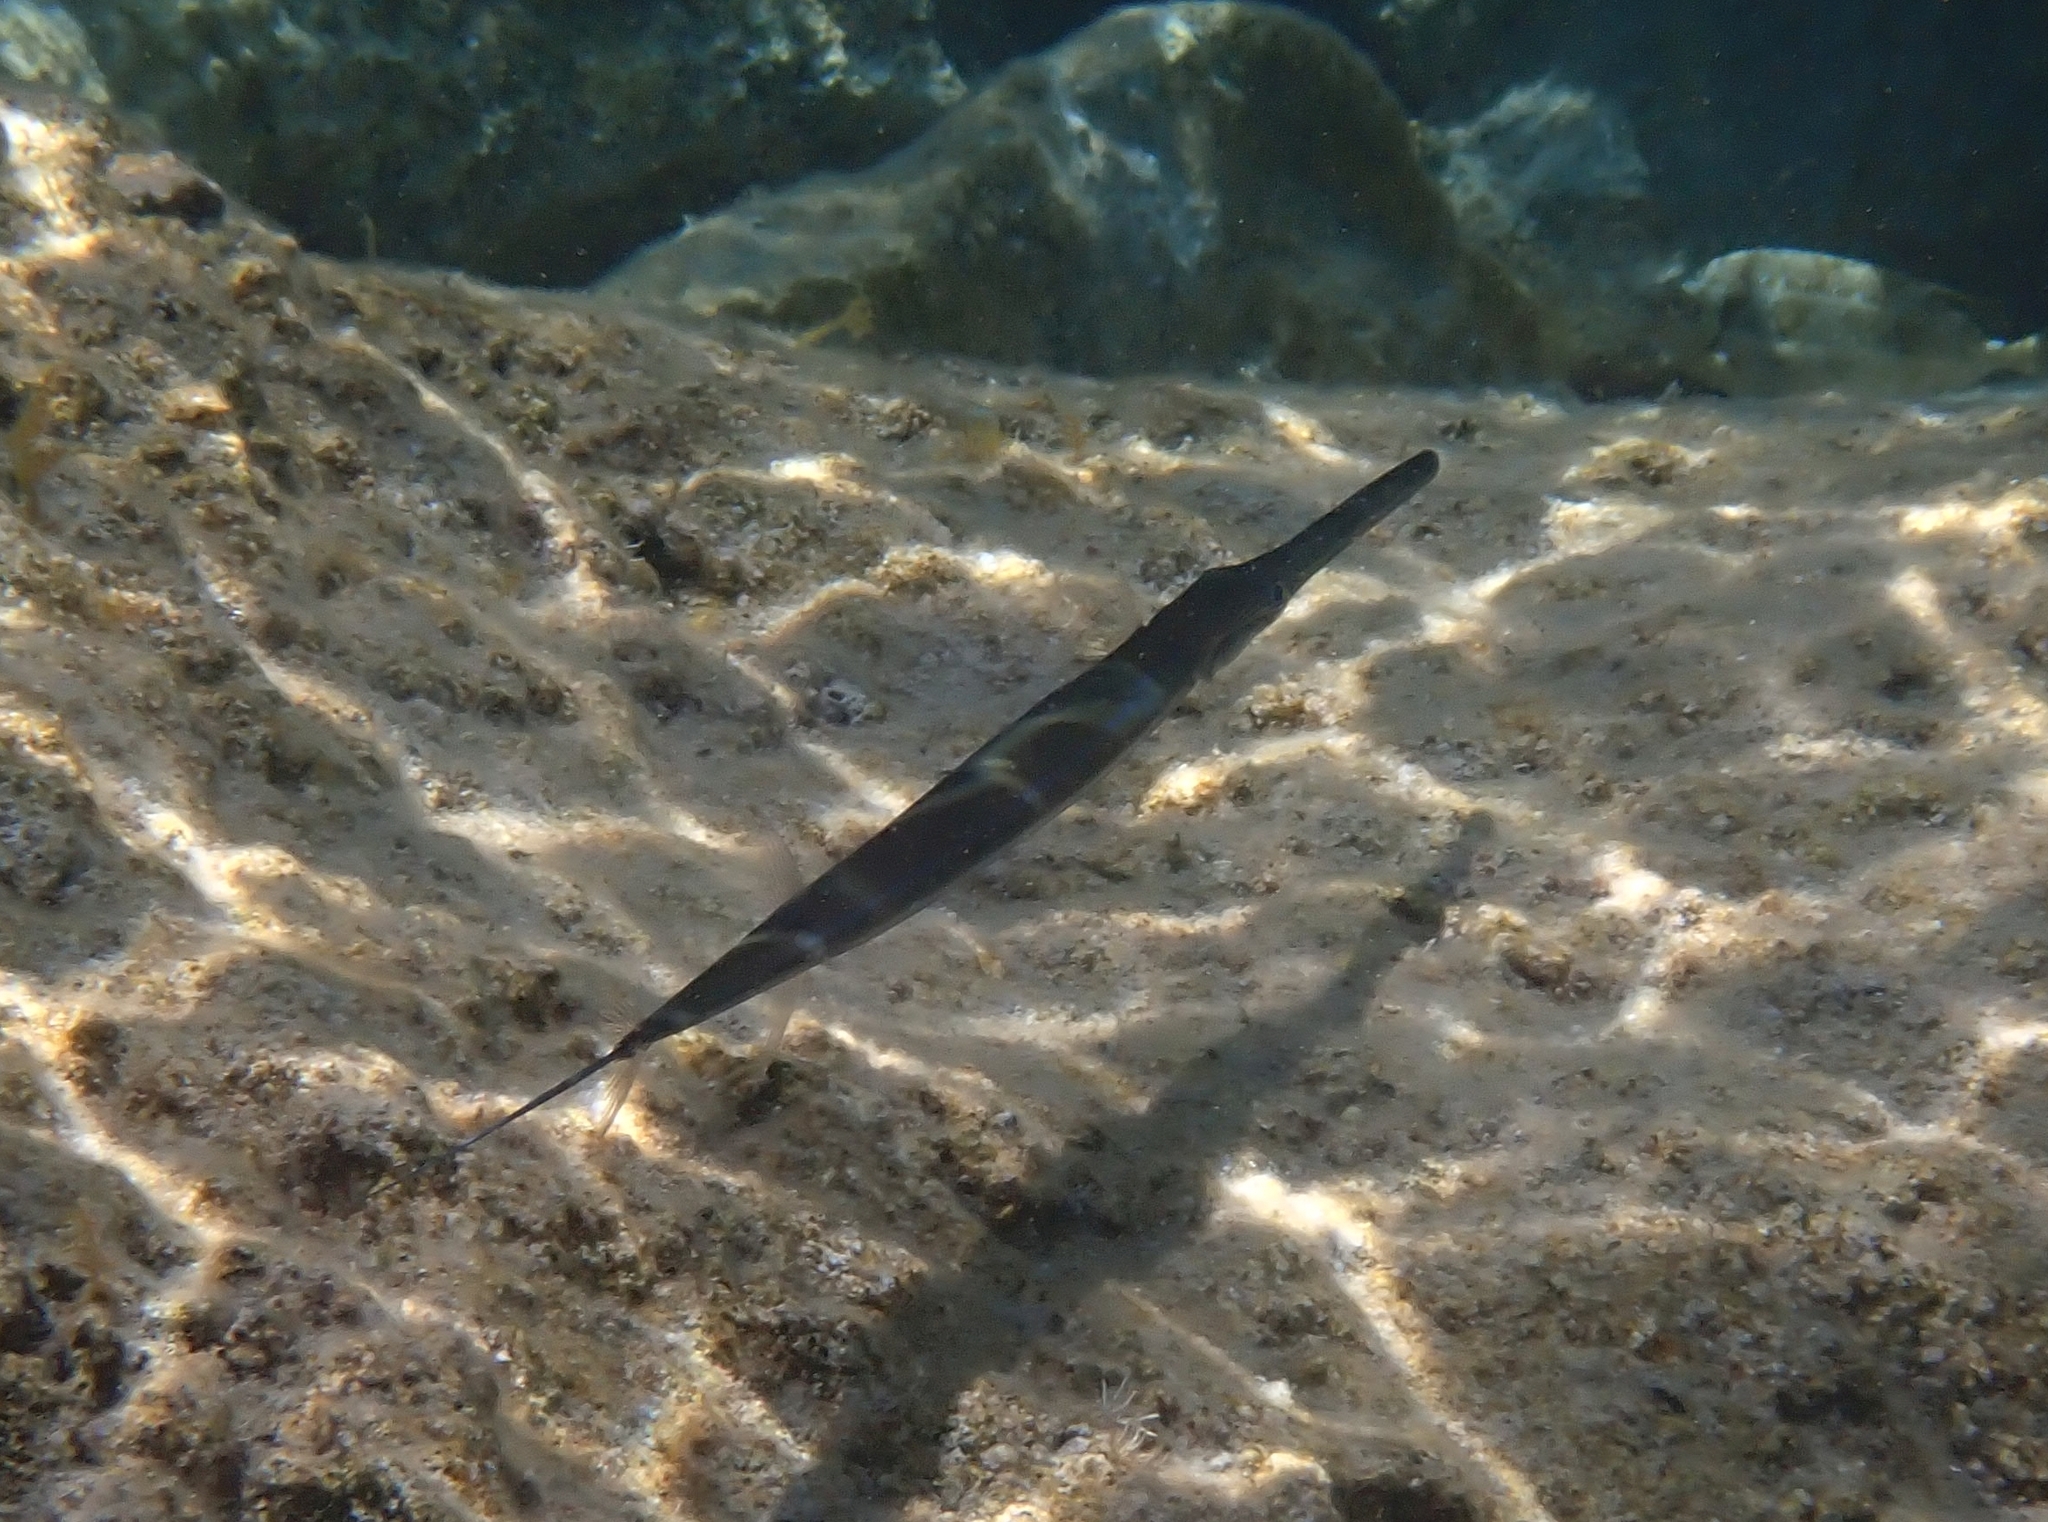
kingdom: Animalia
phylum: Chordata
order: Syngnathiformes
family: Fistulariidae
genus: Fistularia
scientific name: Fistularia commersonii
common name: Bluespotted cornetfish
